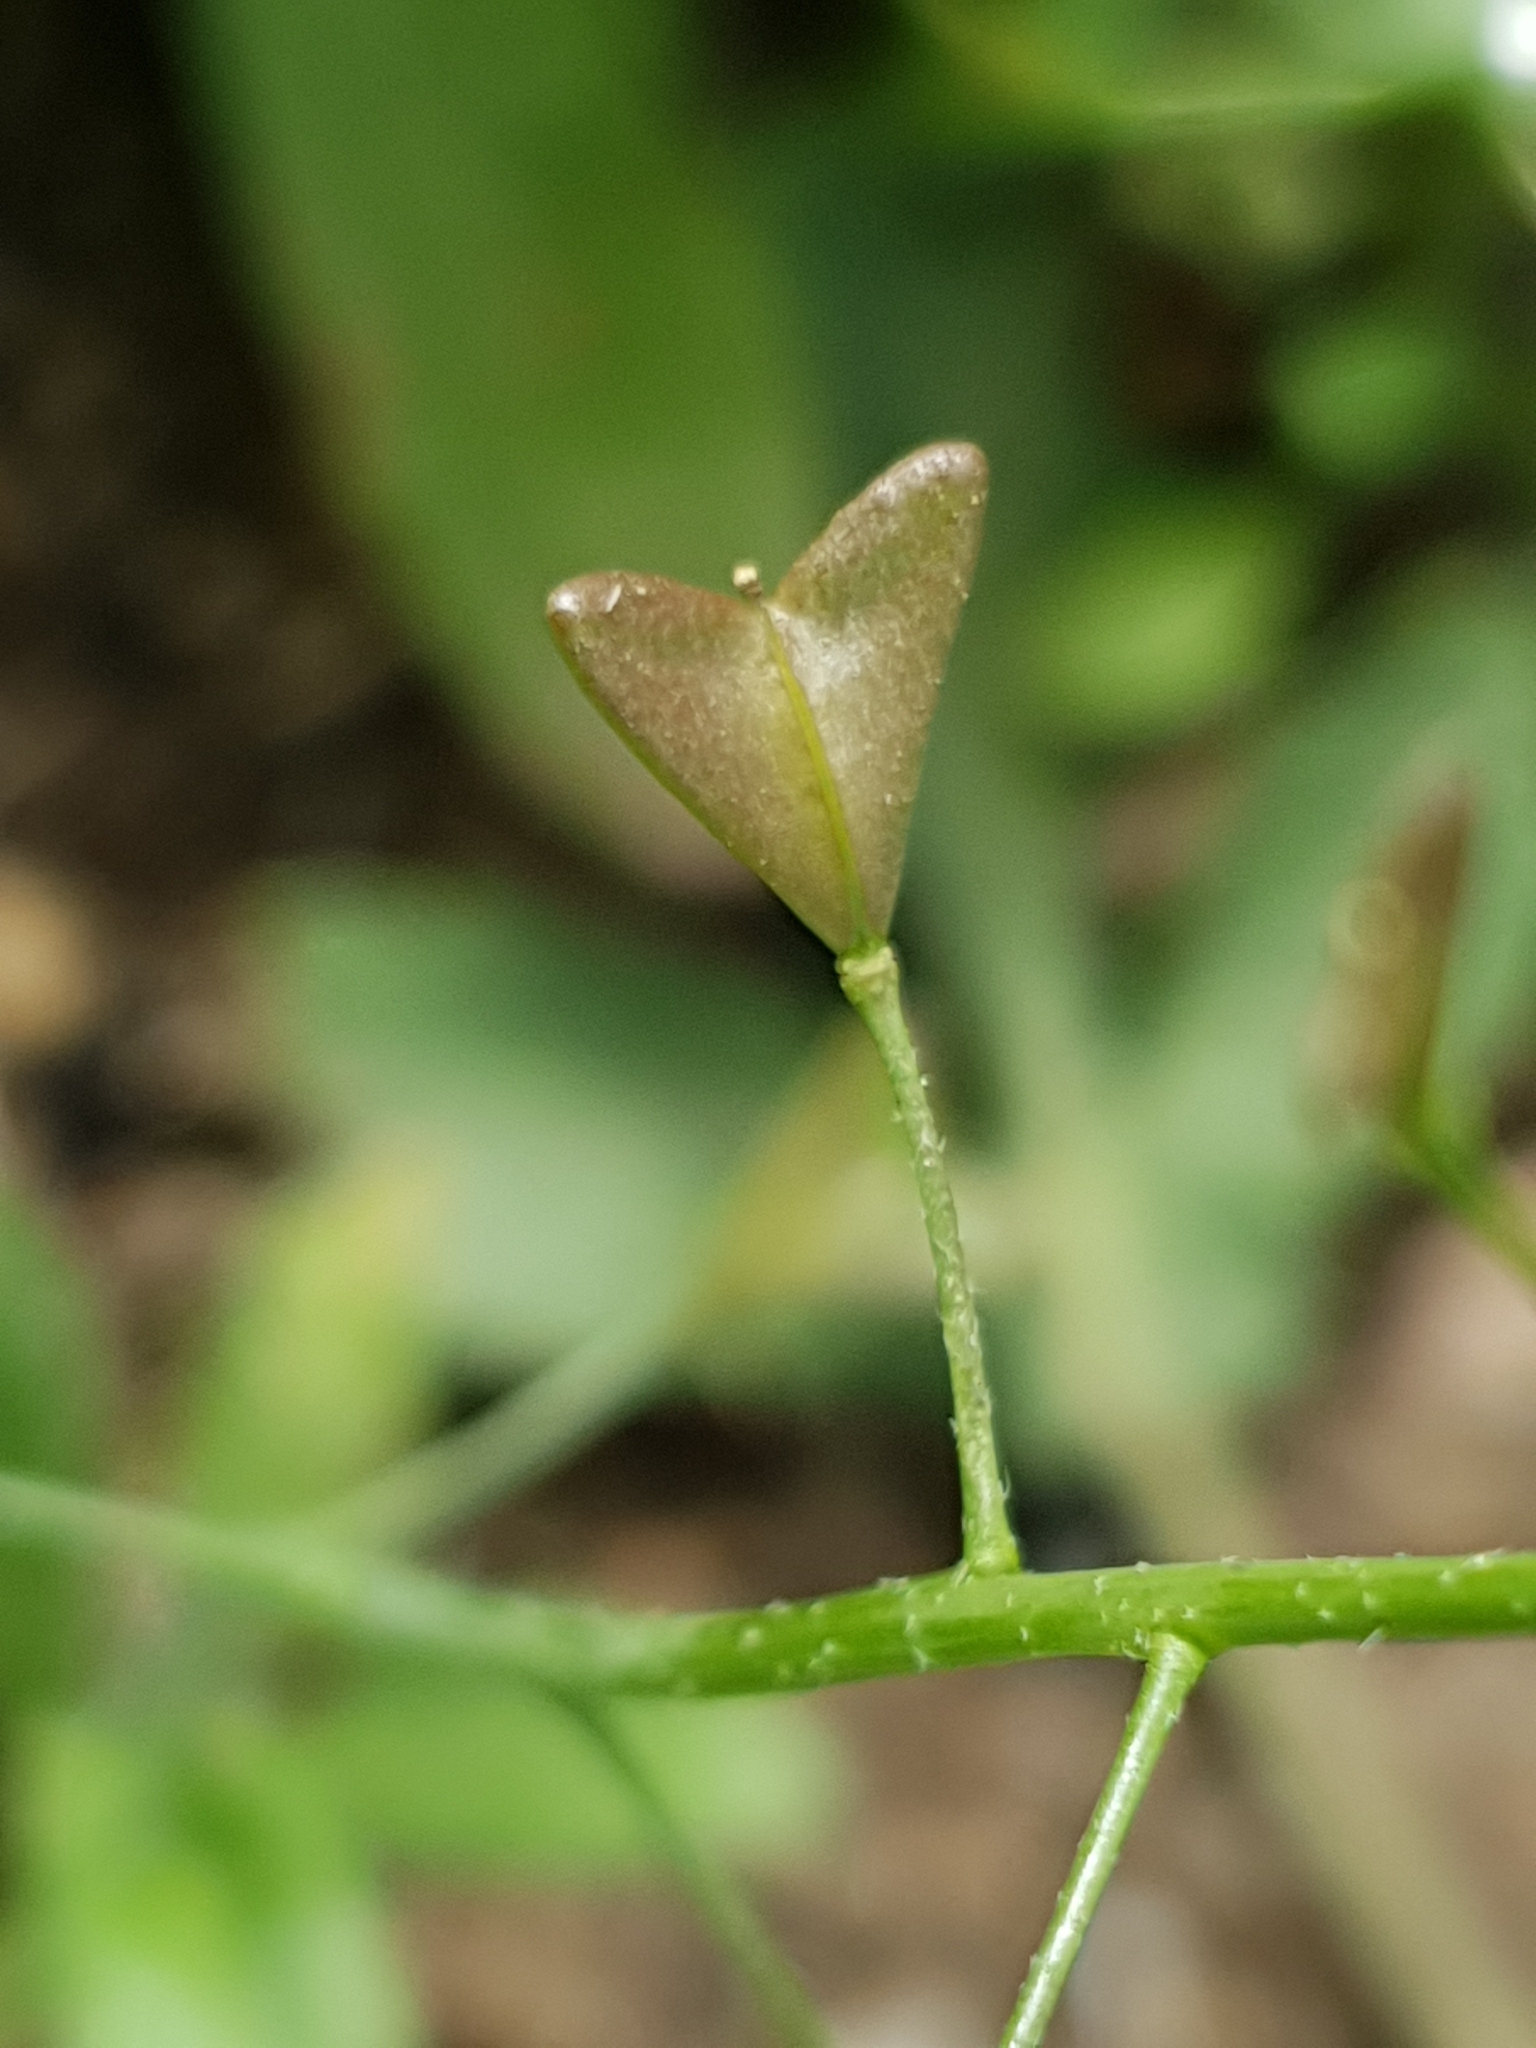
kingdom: Plantae
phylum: Tracheophyta
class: Magnoliopsida
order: Brassicales
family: Brassicaceae
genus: Capsella
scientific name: Capsella bursa-pastoris
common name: Shepherd's purse
